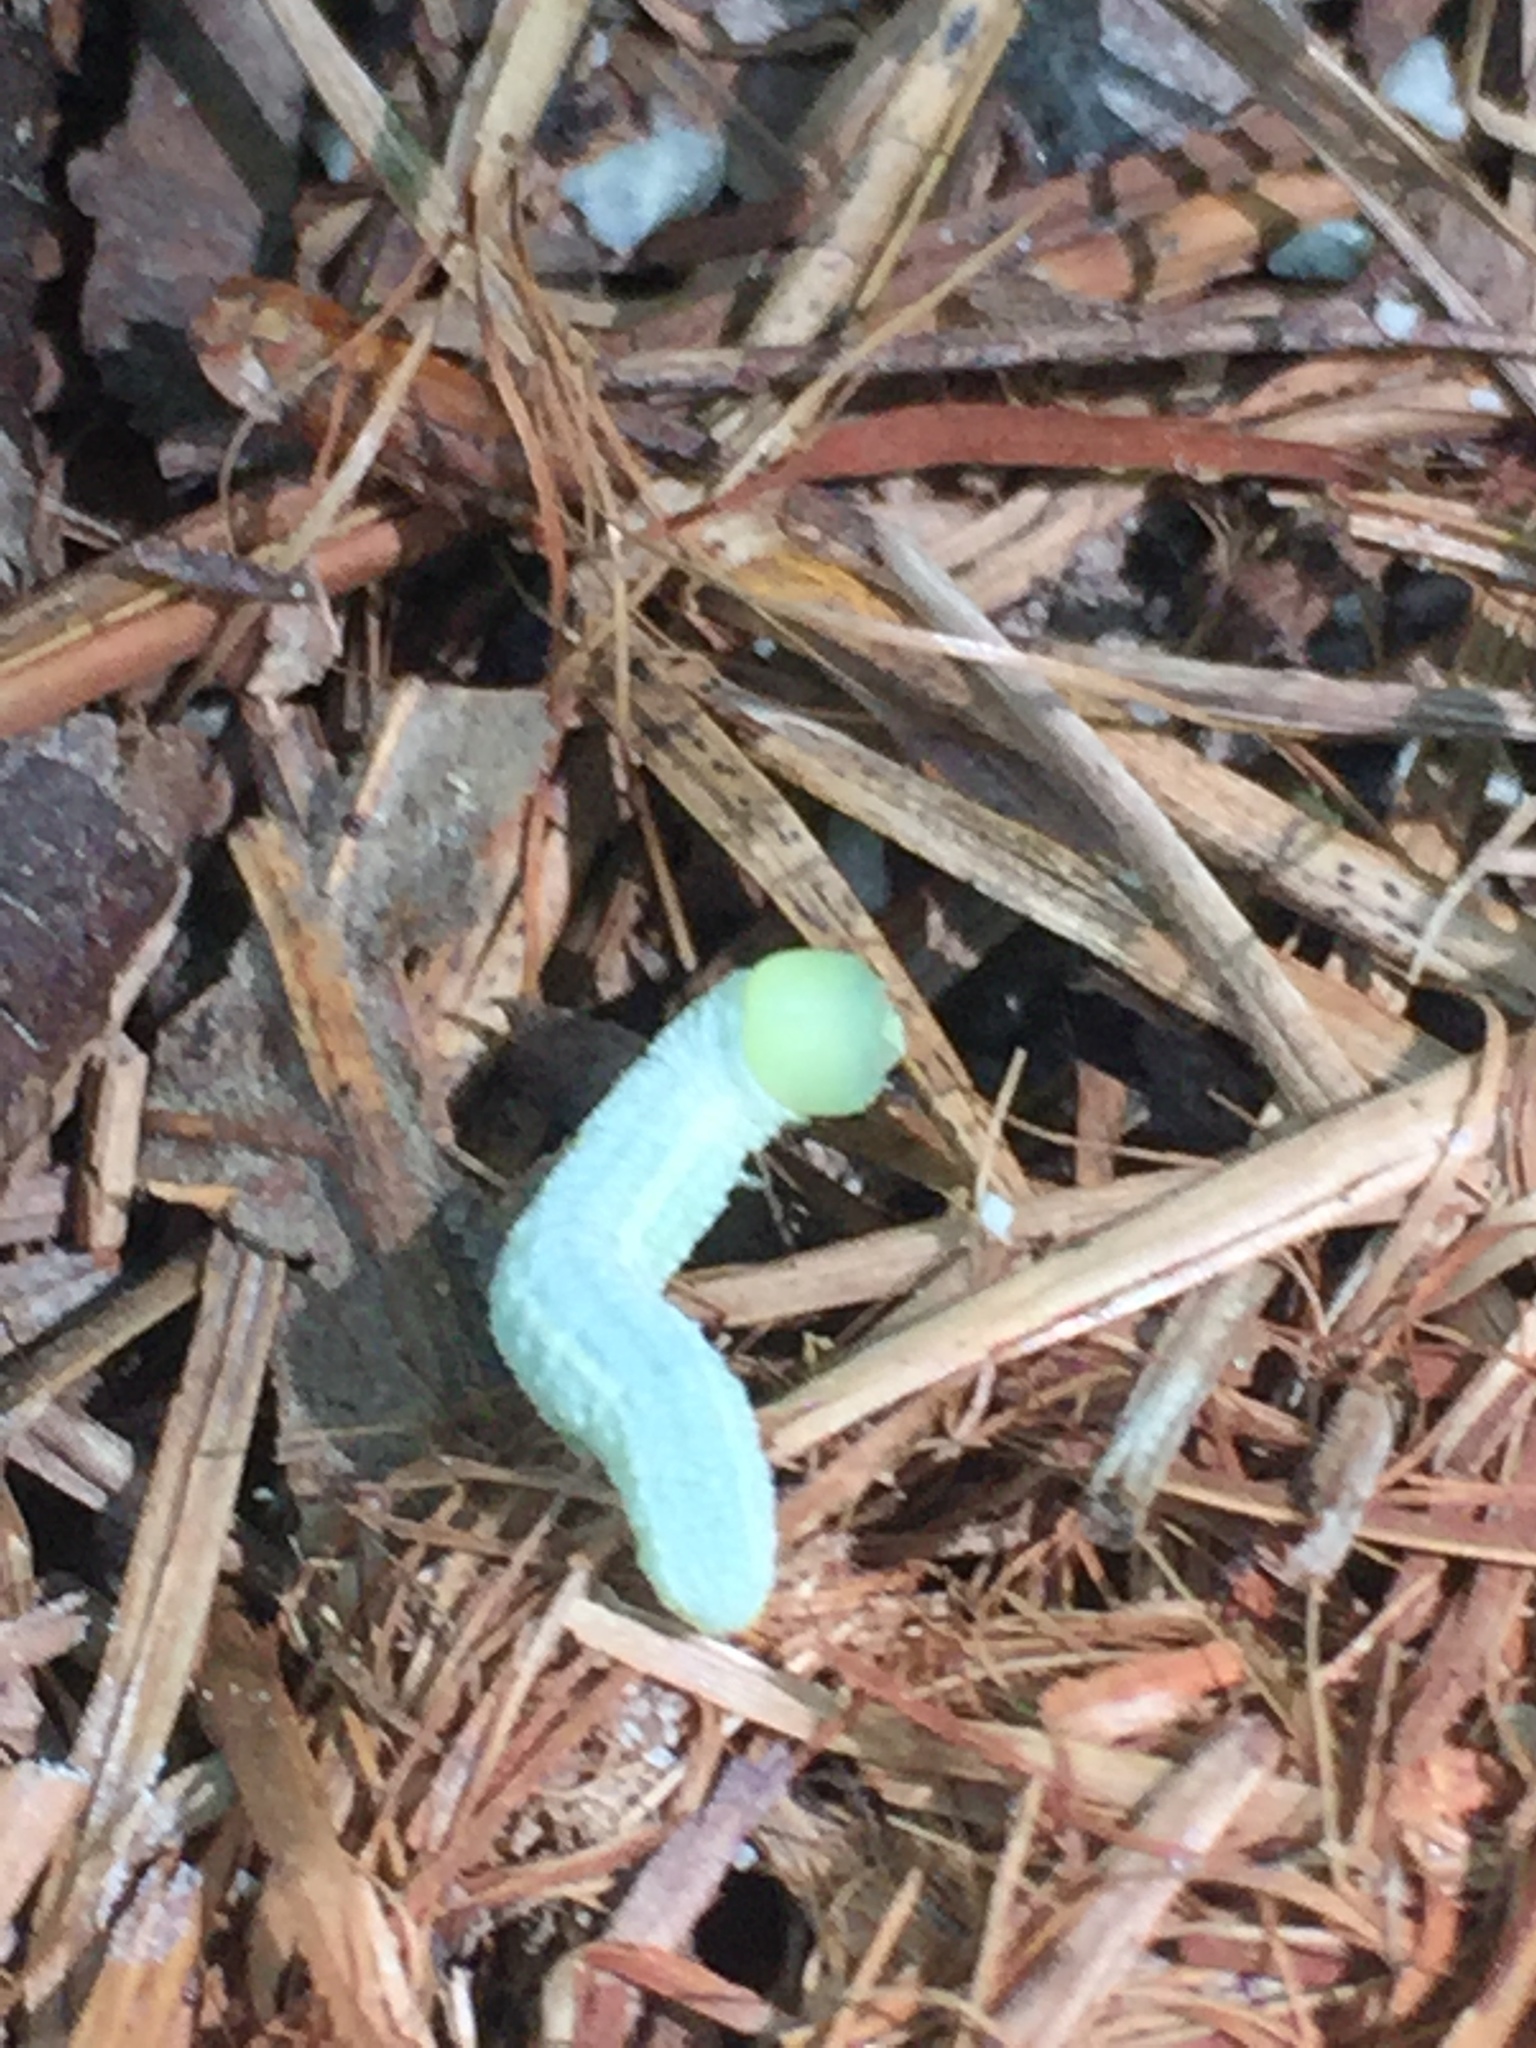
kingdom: Animalia
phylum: Arthropoda
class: Insecta
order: Lepidoptera
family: Notodontidae
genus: Nadata
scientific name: Nadata gibbosa
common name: White-dotted prominent
